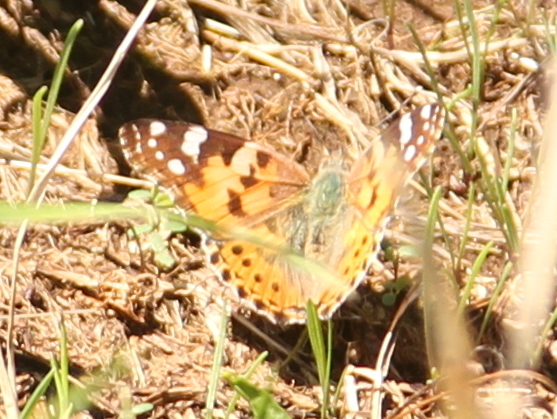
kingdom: Animalia
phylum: Arthropoda
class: Insecta
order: Lepidoptera
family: Nymphalidae
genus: Vanessa
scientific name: Vanessa cardui
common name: Painted lady
